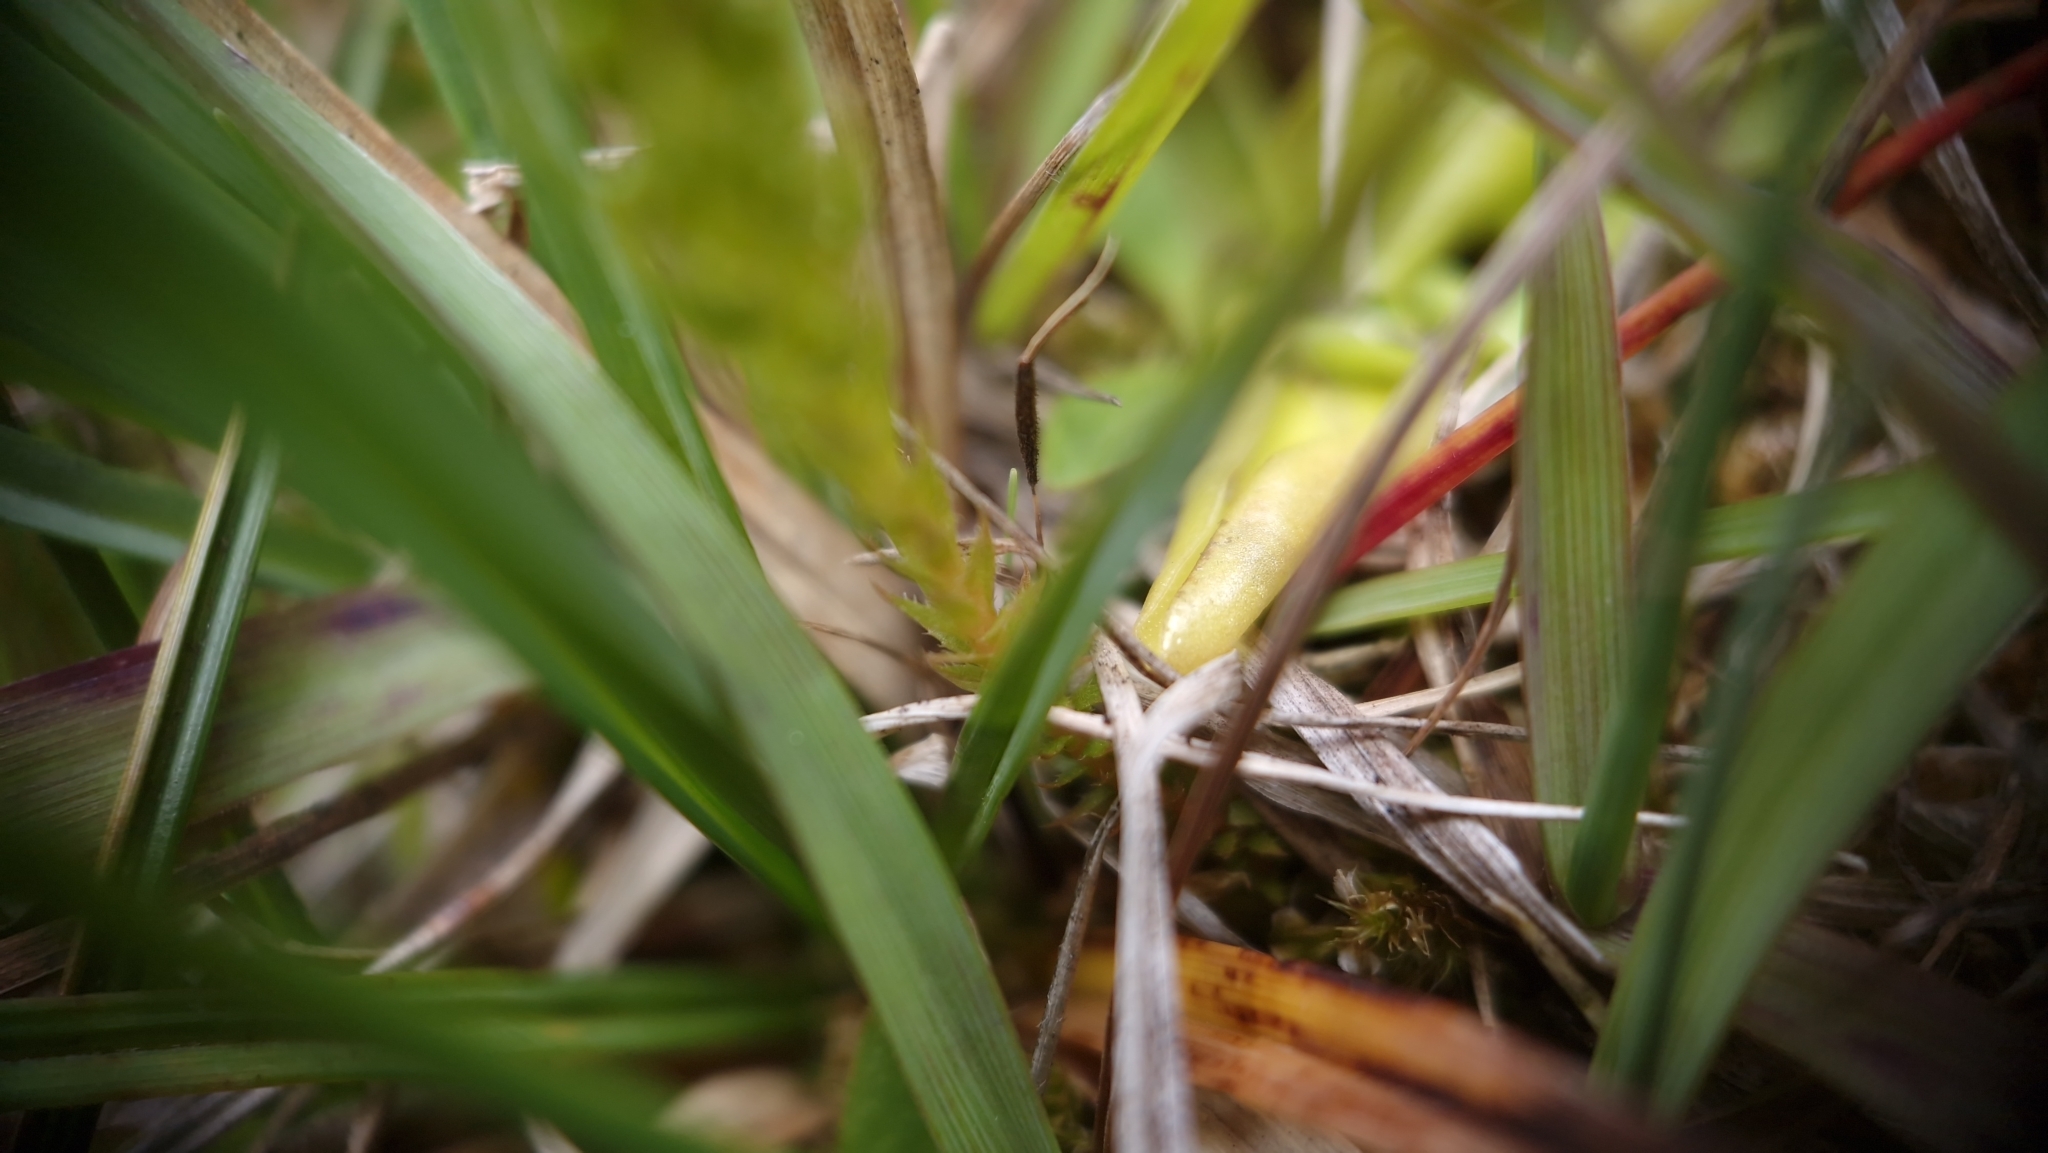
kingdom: Plantae
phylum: Tracheophyta
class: Lycopodiopsida
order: Selaginellales
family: Selaginellaceae
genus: Selaginella
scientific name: Selaginella selaginoides
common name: Prickly mountain-moss
